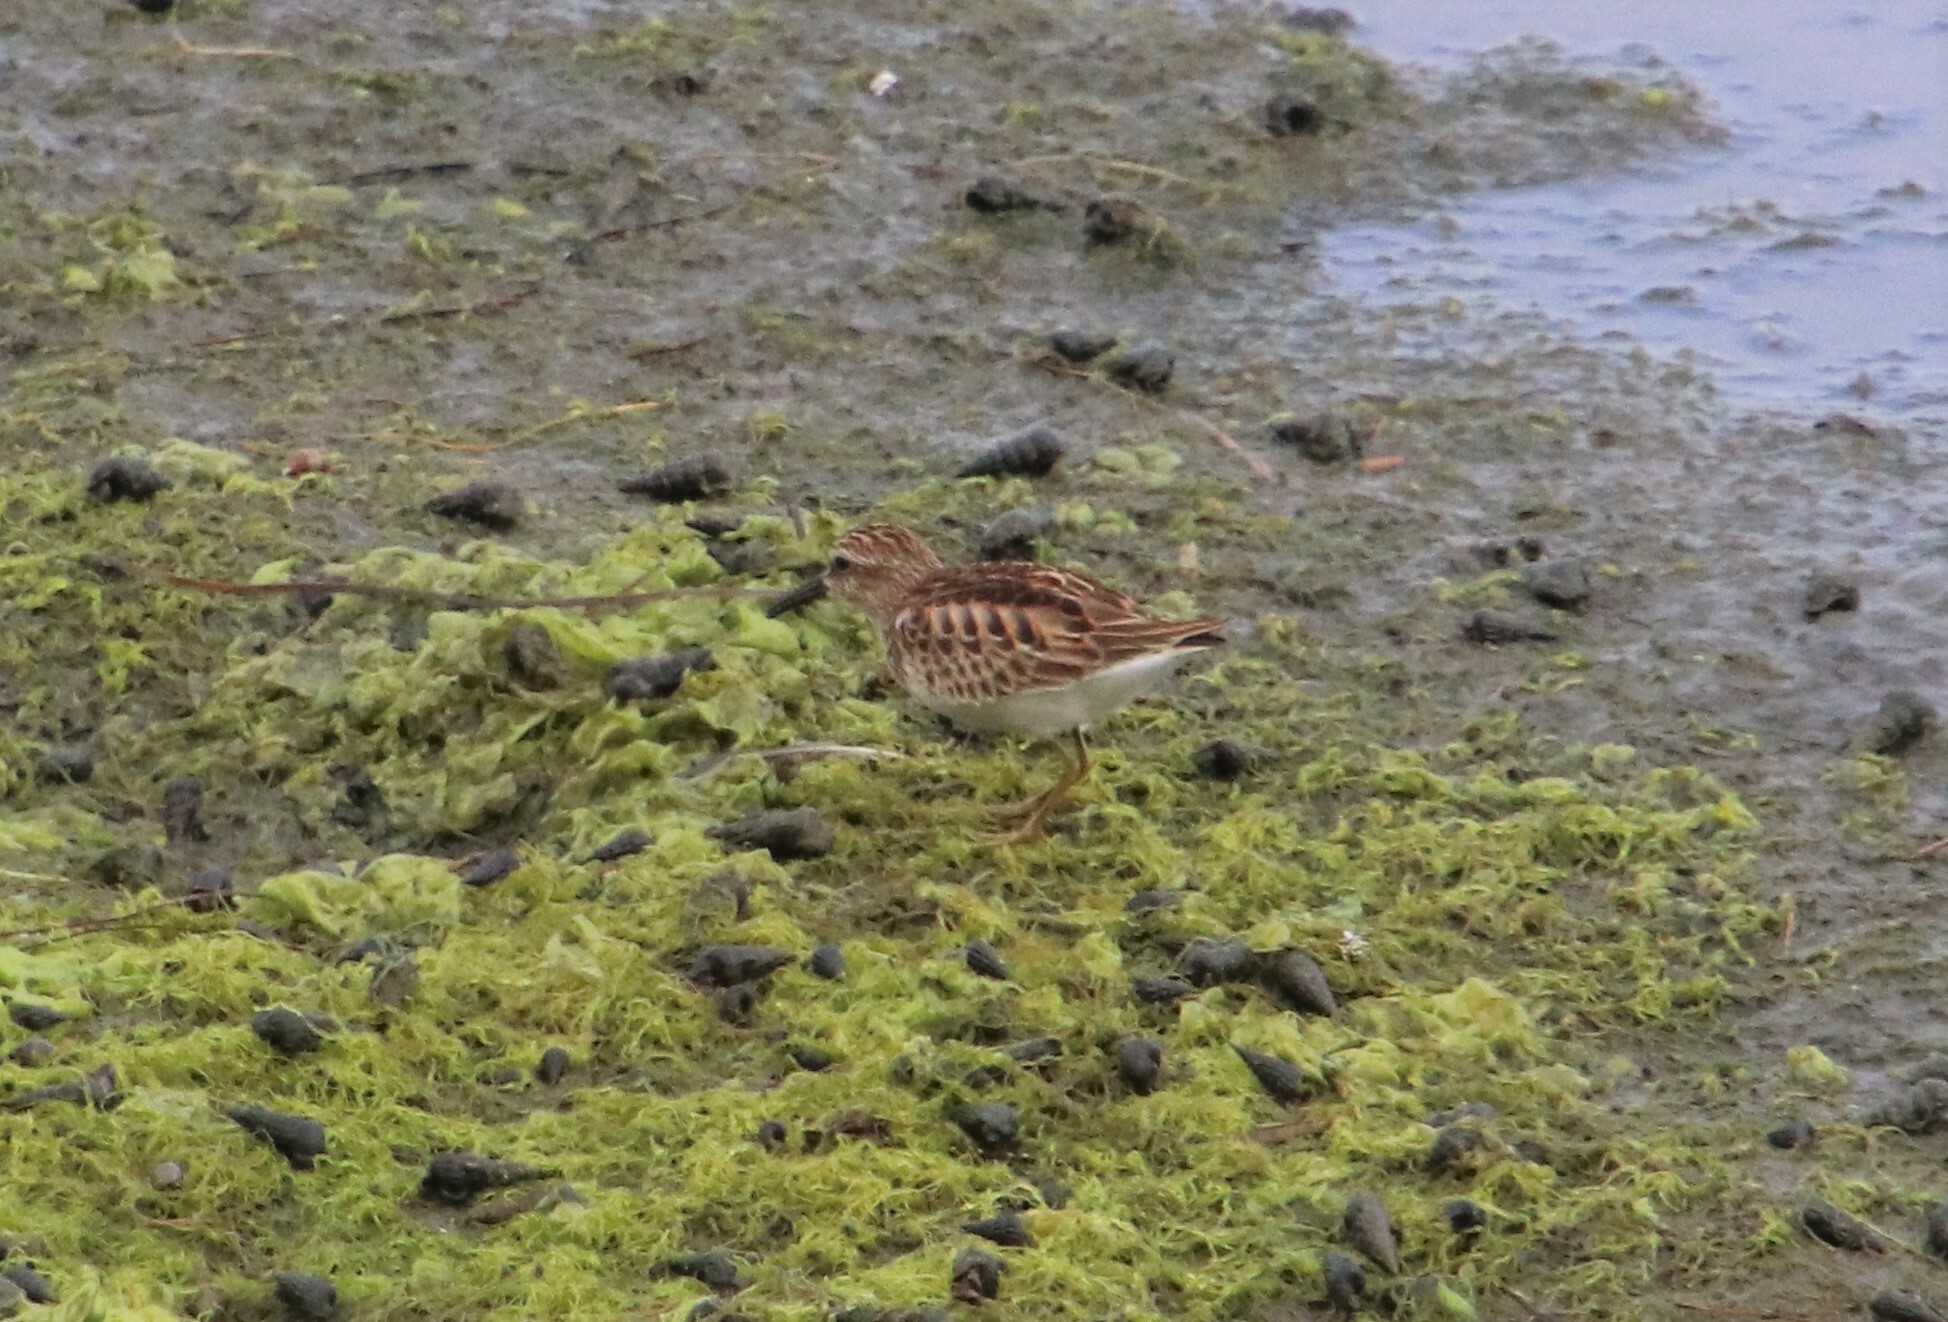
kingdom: Animalia
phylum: Chordata
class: Aves
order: Charadriiformes
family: Scolopacidae
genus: Calidris
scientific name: Calidris minutilla
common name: Least sandpiper
